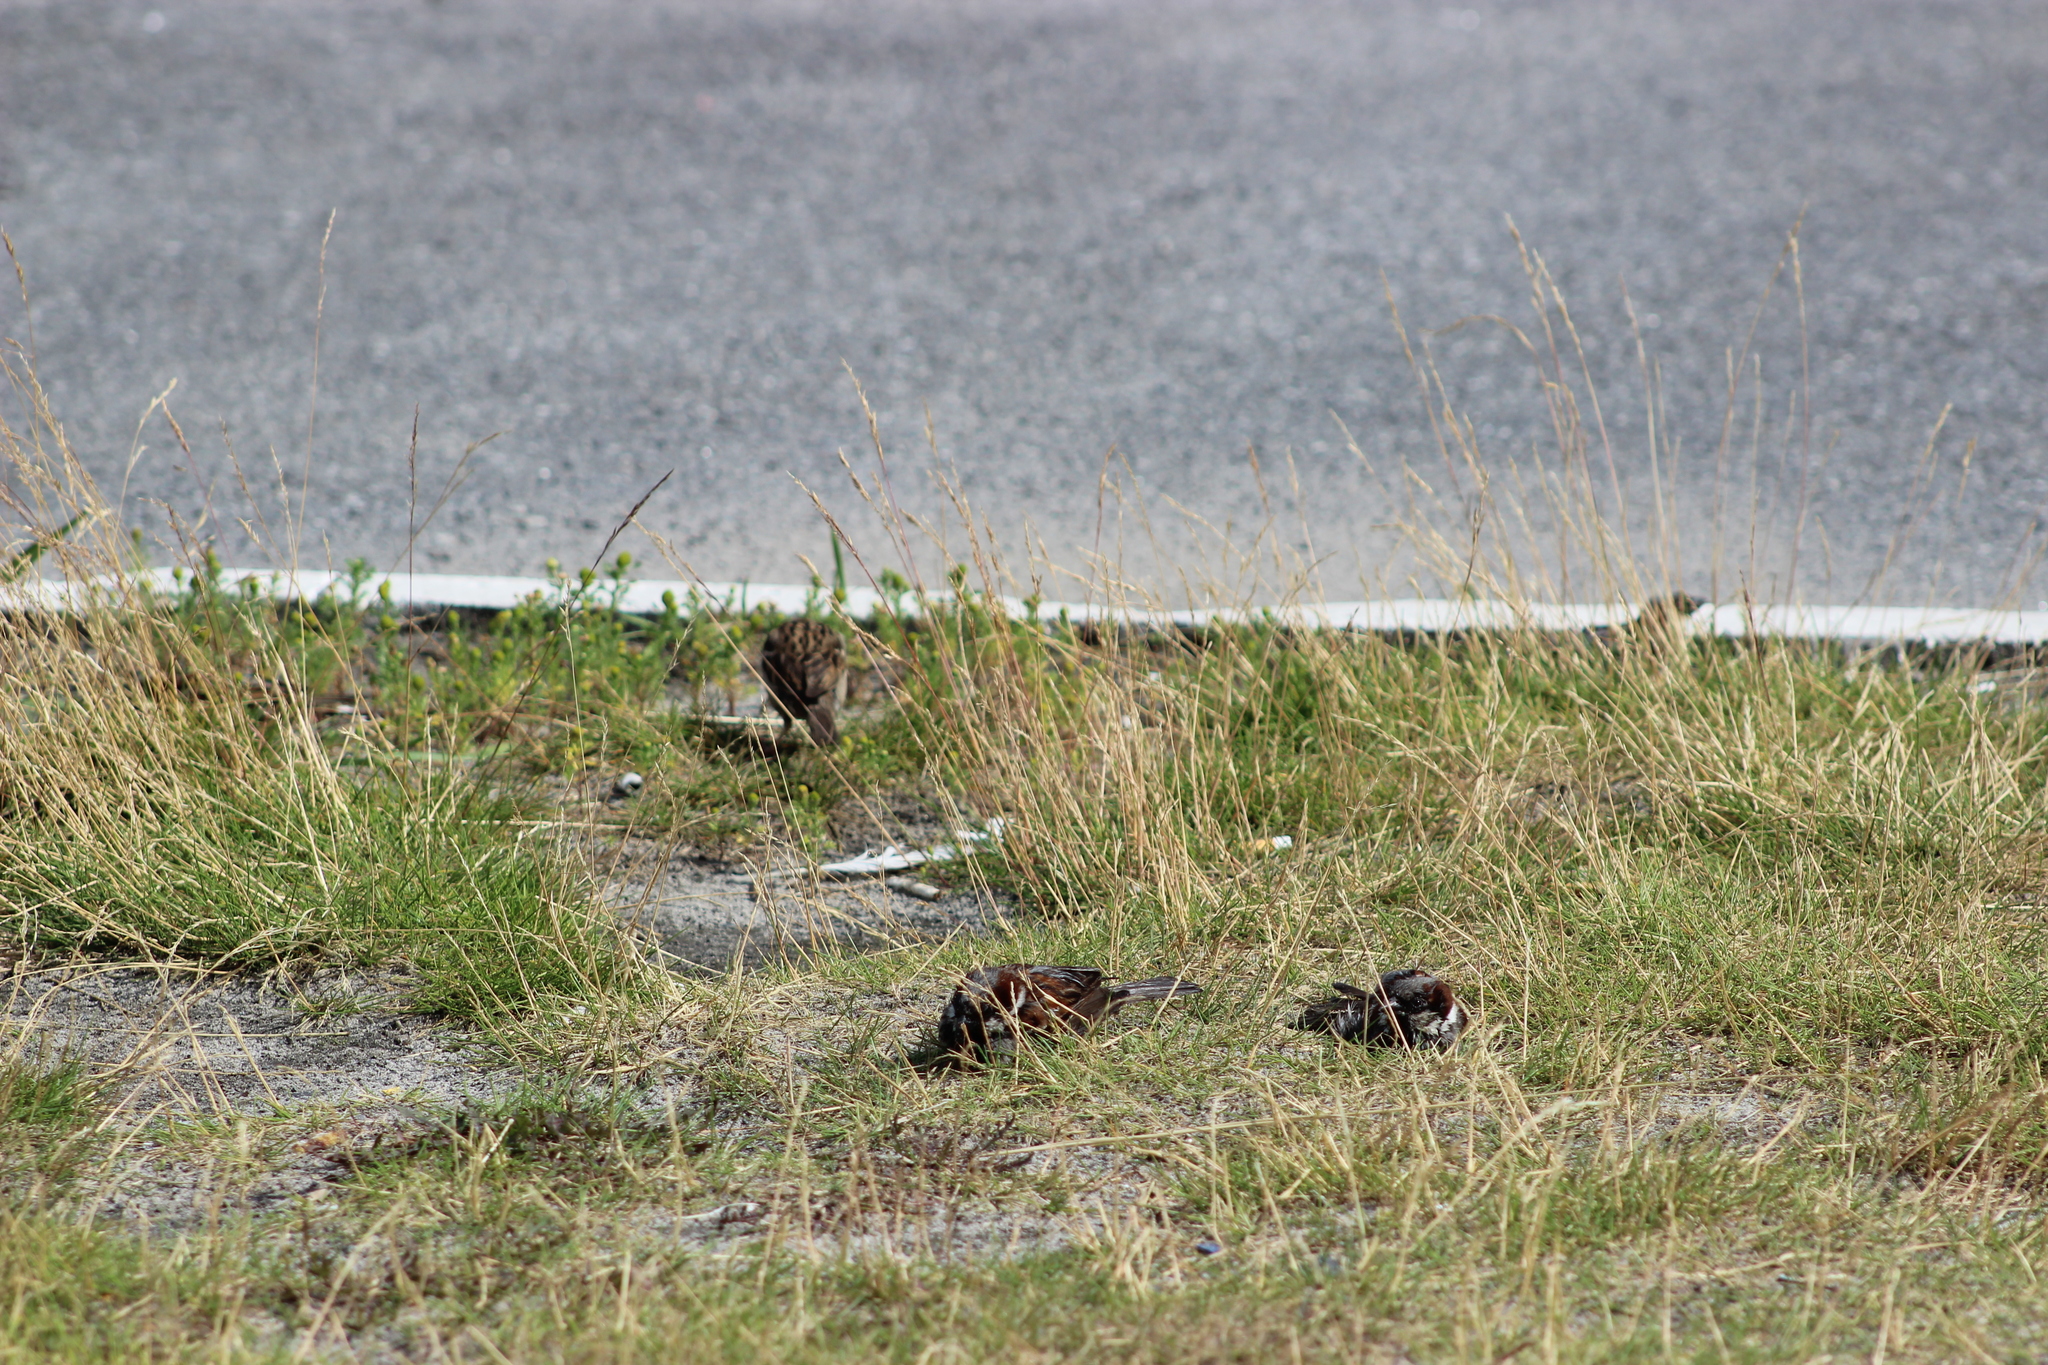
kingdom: Animalia
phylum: Chordata
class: Aves
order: Passeriformes
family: Passeridae
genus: Passer
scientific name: Passer domesticus
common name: House sparrow
